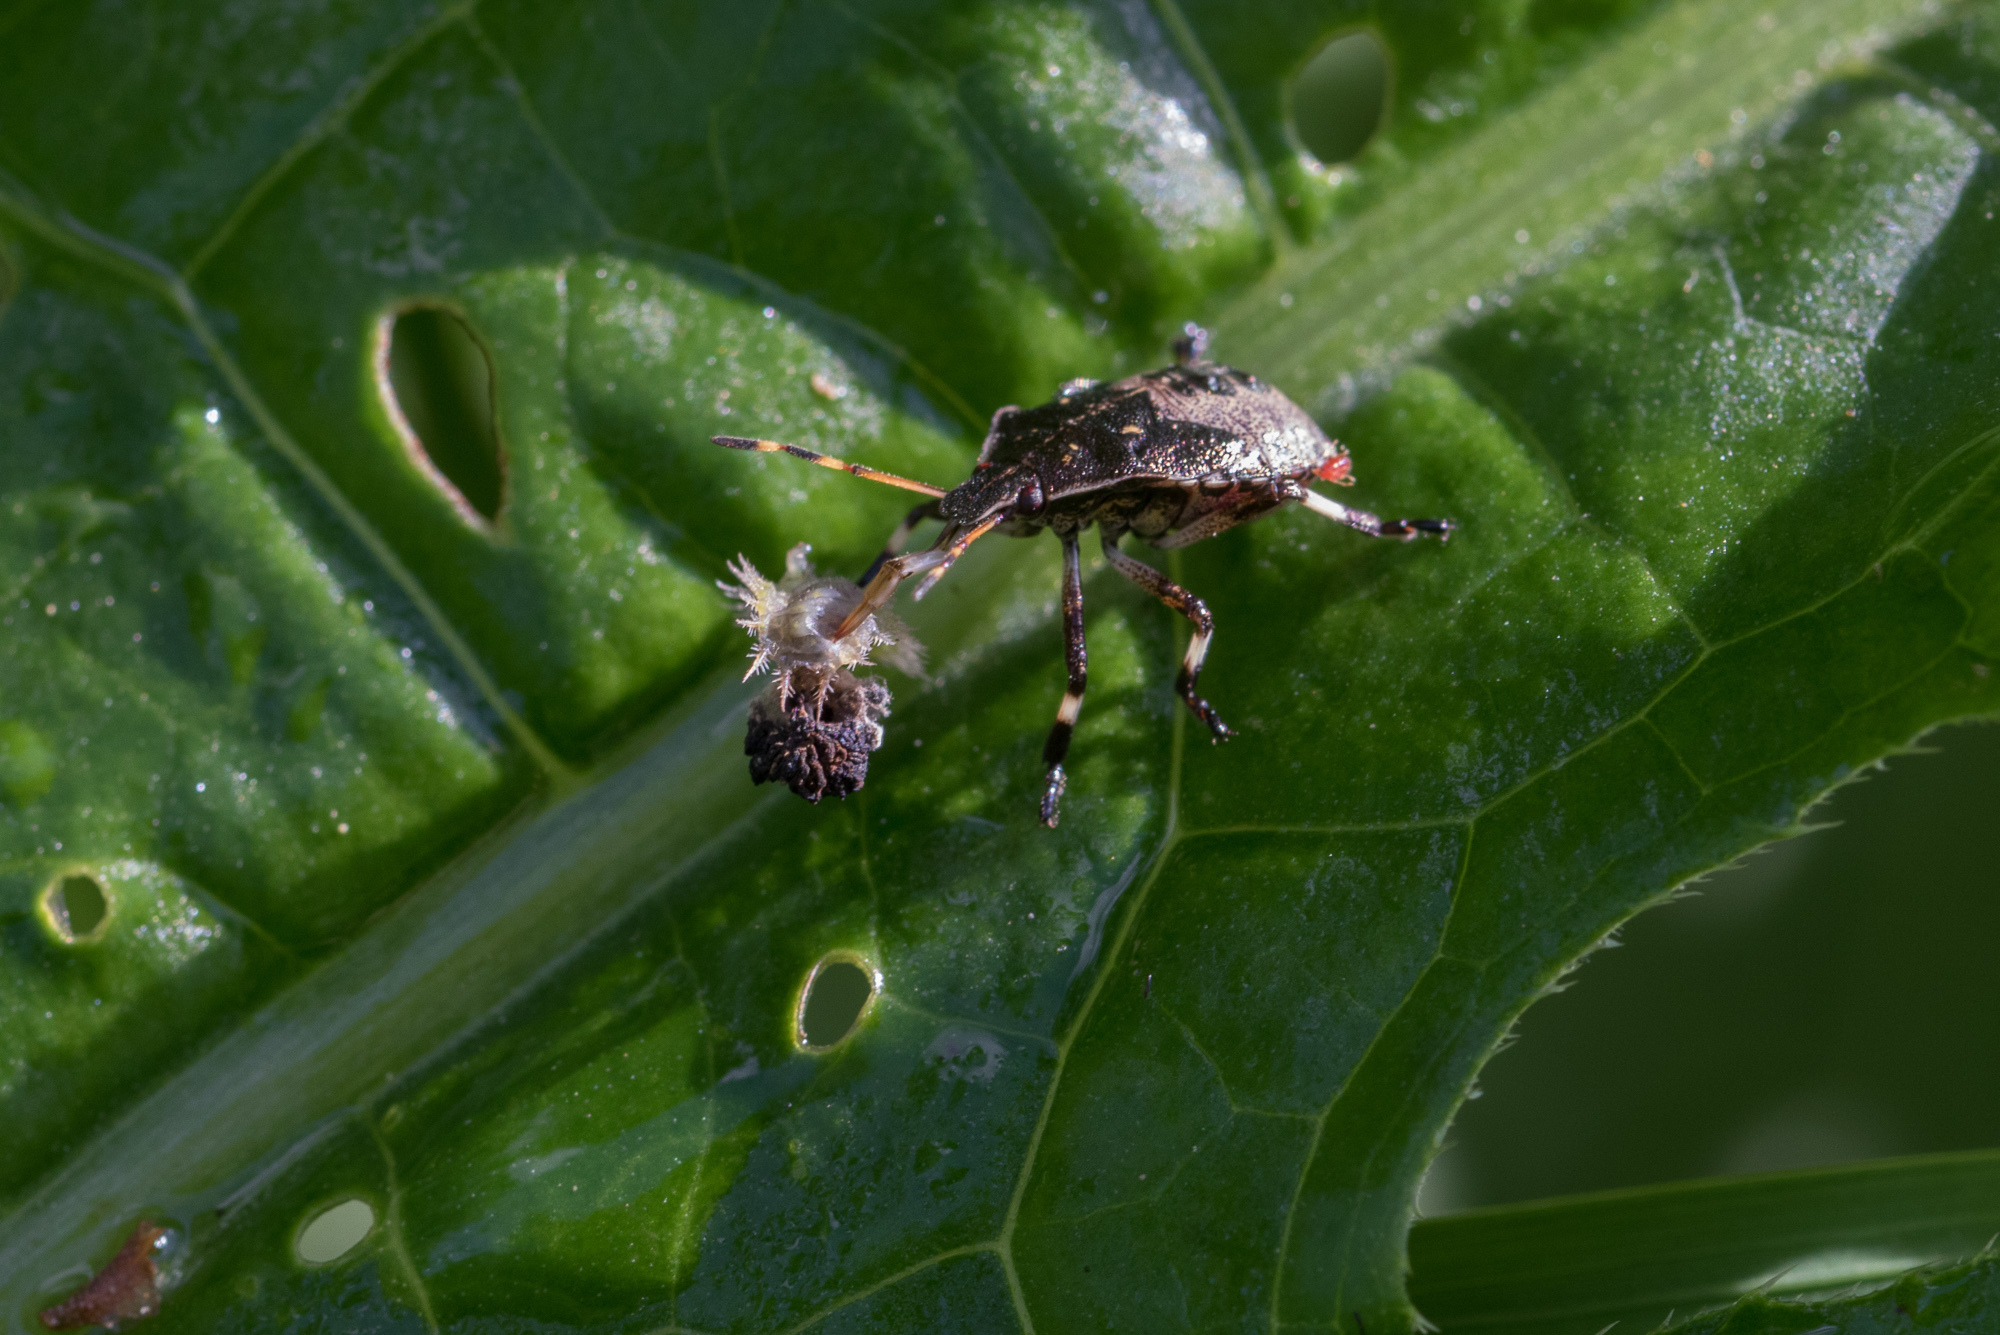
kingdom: Animalia
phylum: Arthropoda
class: Insecta
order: Hemiptera
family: Pentatomidae
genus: Picromerus
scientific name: Picromerus bidens
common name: Spiked shieldbug
